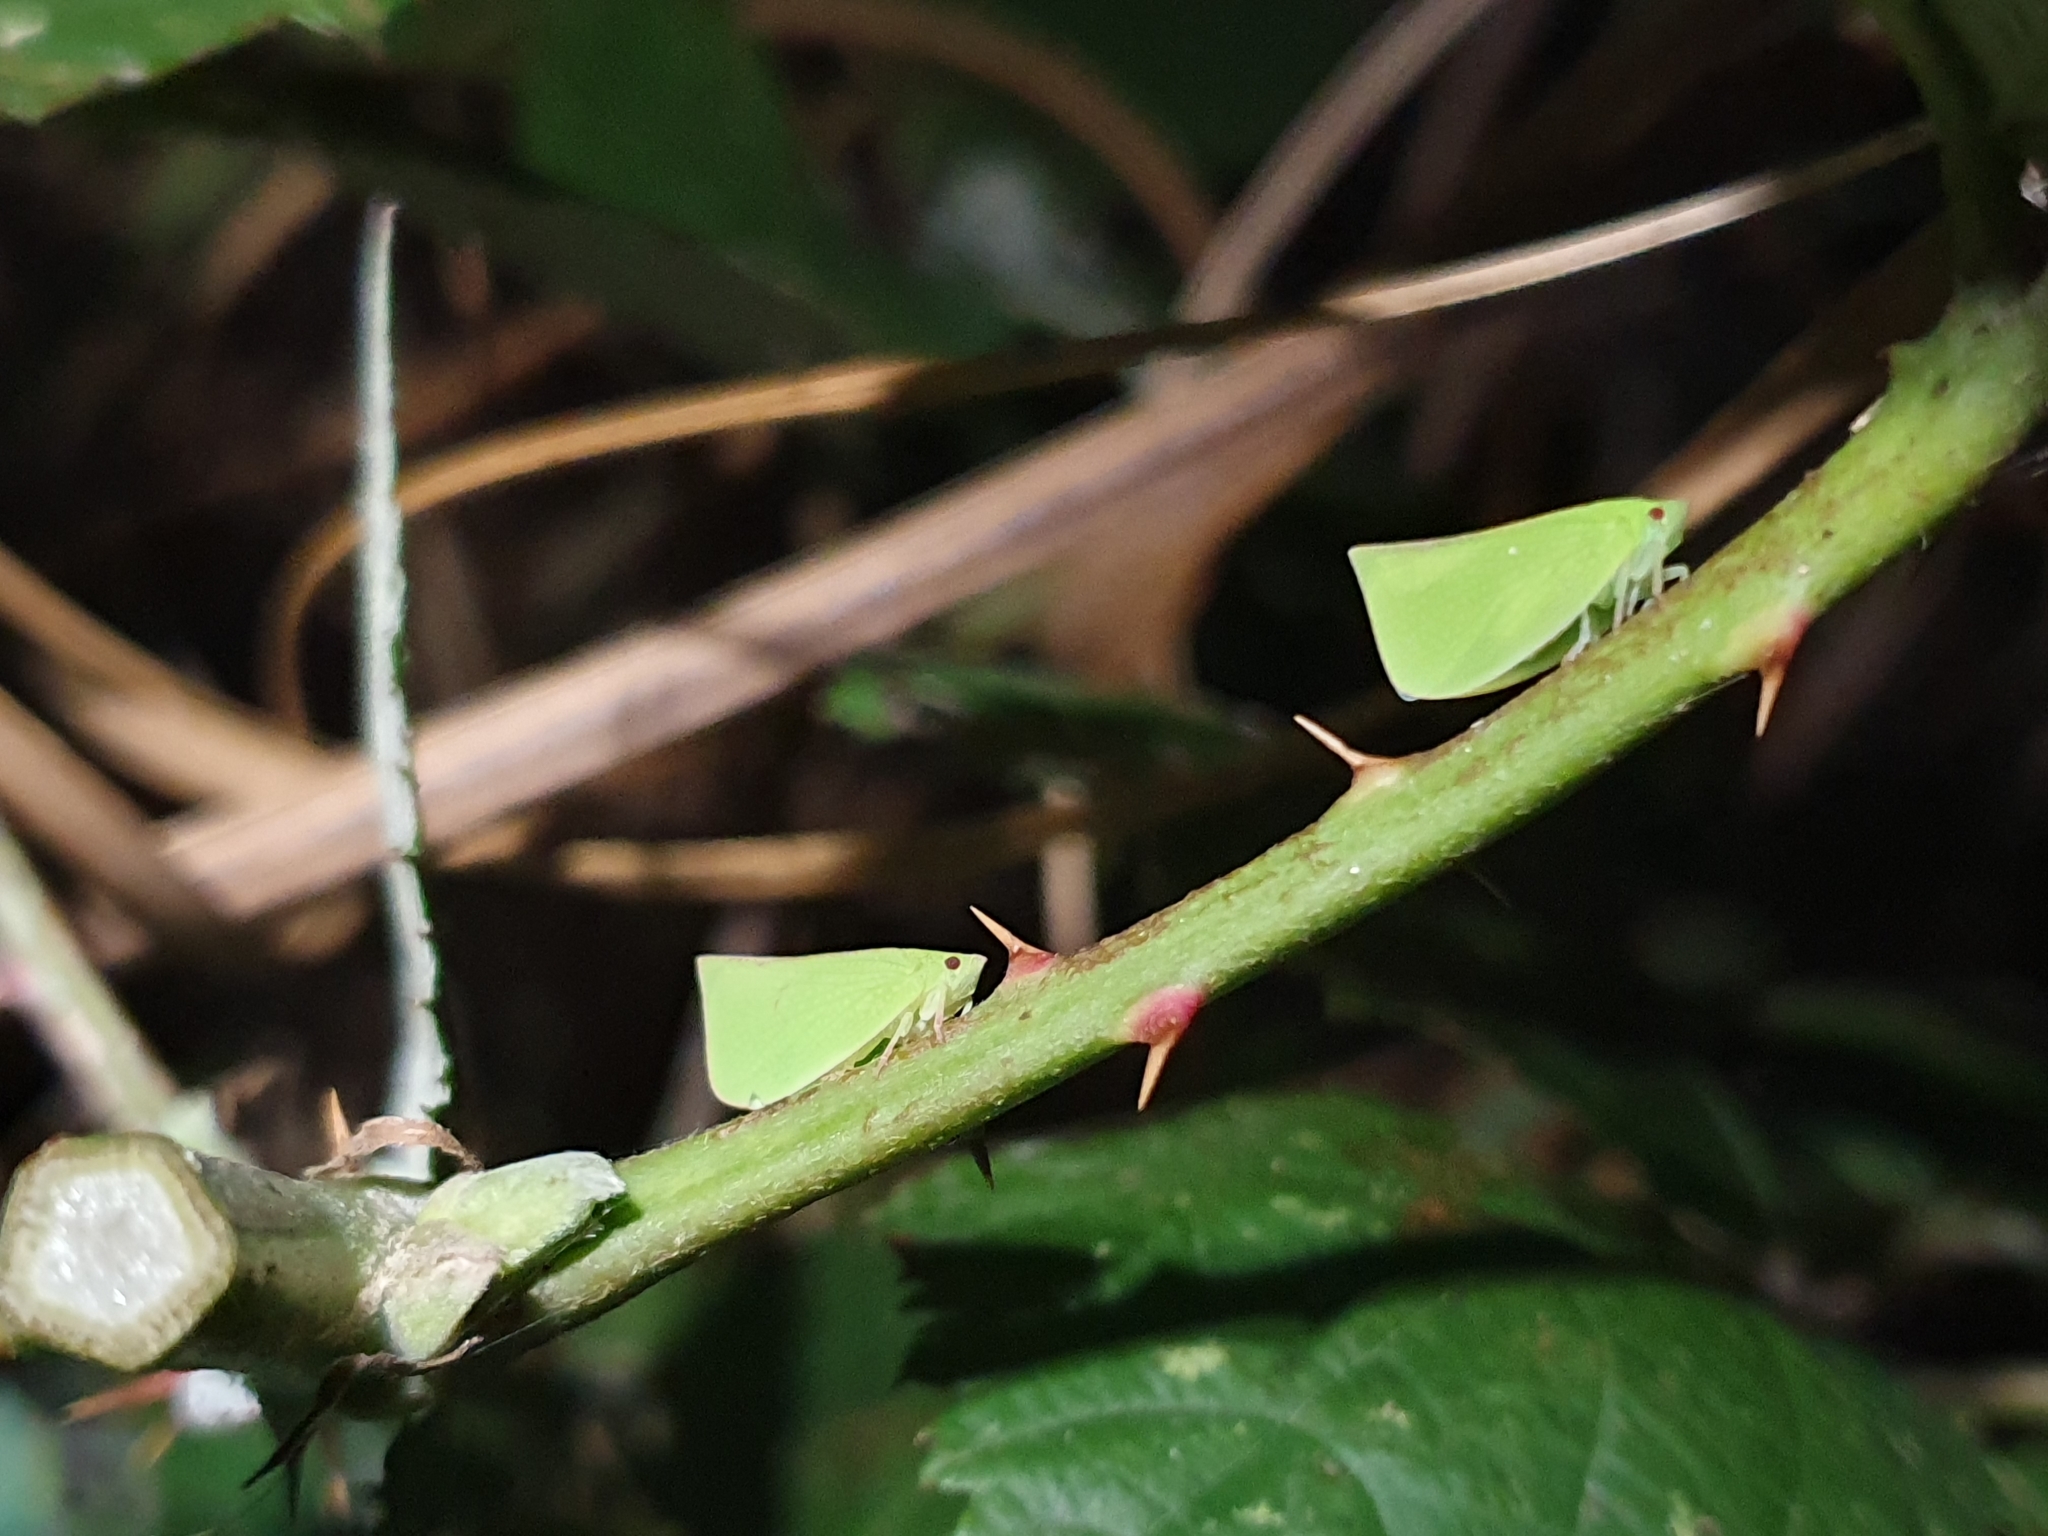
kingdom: Animalia
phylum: Arthropoda
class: Insecta
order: Hemiptera
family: Flatidae
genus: Siphanta
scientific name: Siphanta acuta
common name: Torpedo bug
